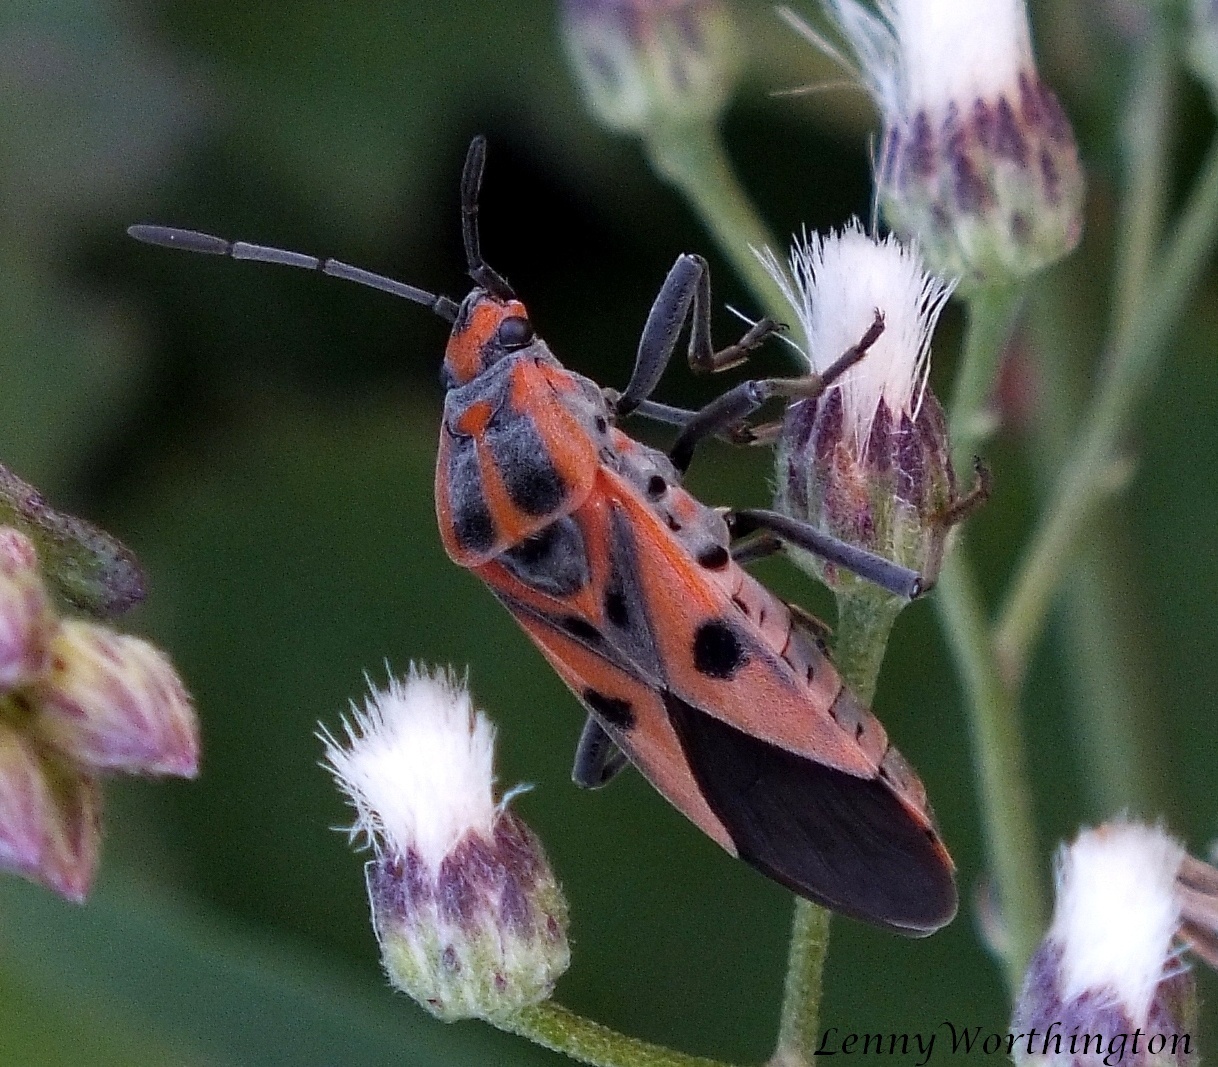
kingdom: Animalia
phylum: Arthropoda
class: Insecta
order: Hemiptera
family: Lygaeidae
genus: Spilostethus
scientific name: Spilostethus hospes
